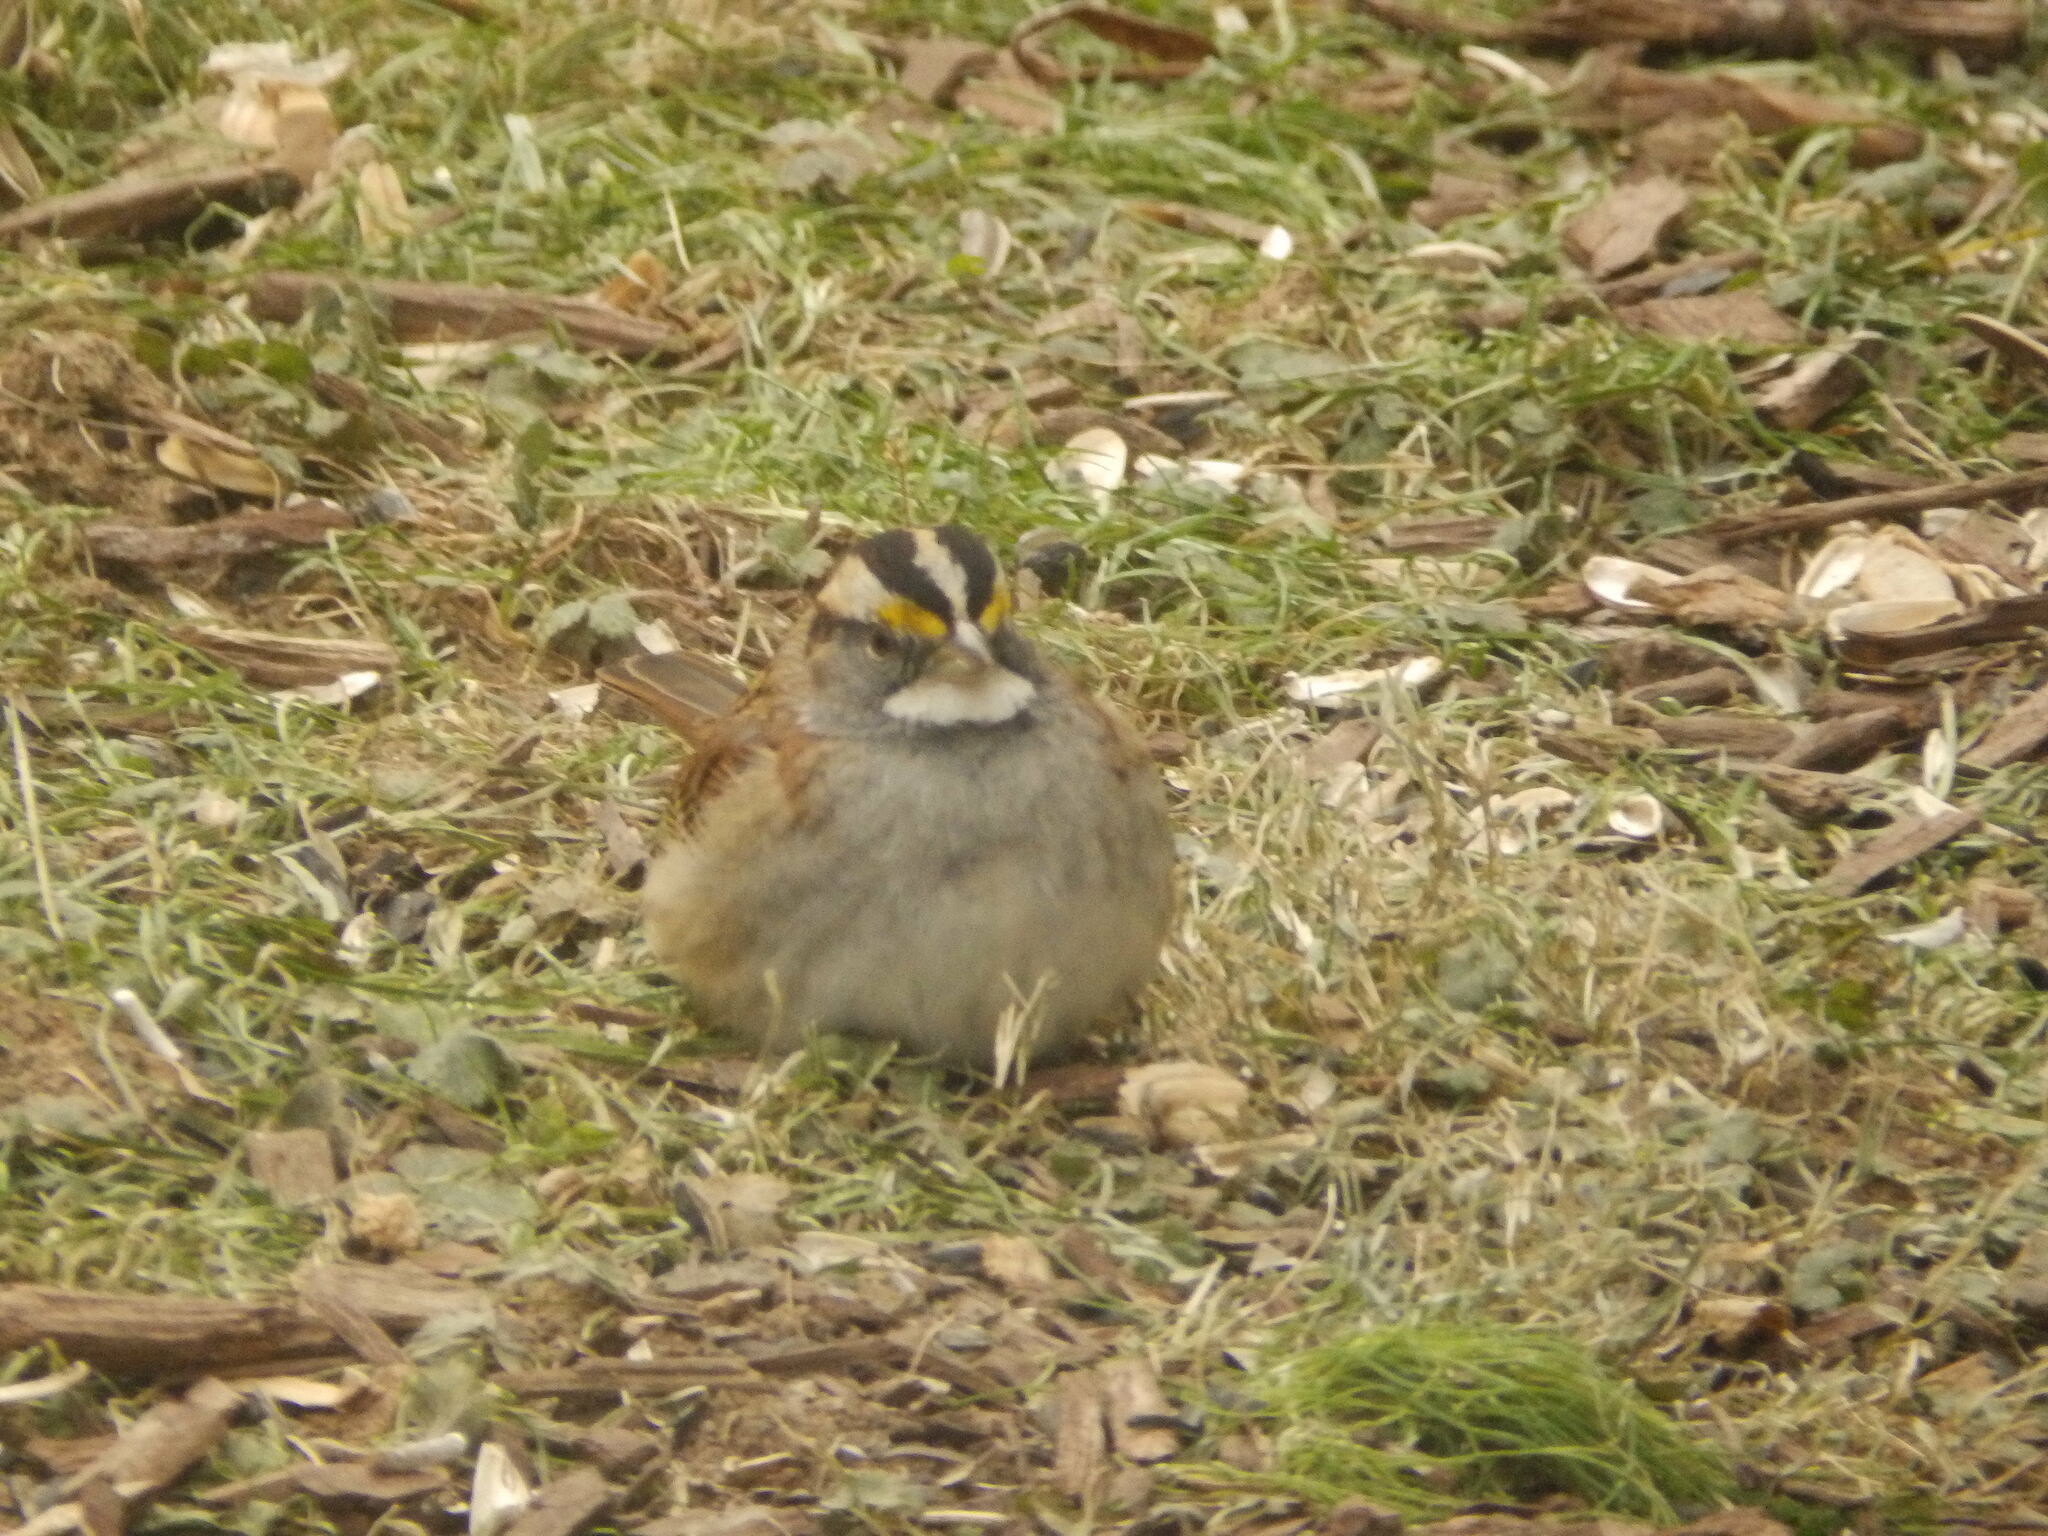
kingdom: Animalia
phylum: Chordata
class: Aves
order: Passeriformes
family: Passerellidae
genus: Zonotrichia
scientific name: Zonotrichia albicollis
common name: White-throated sparrow
